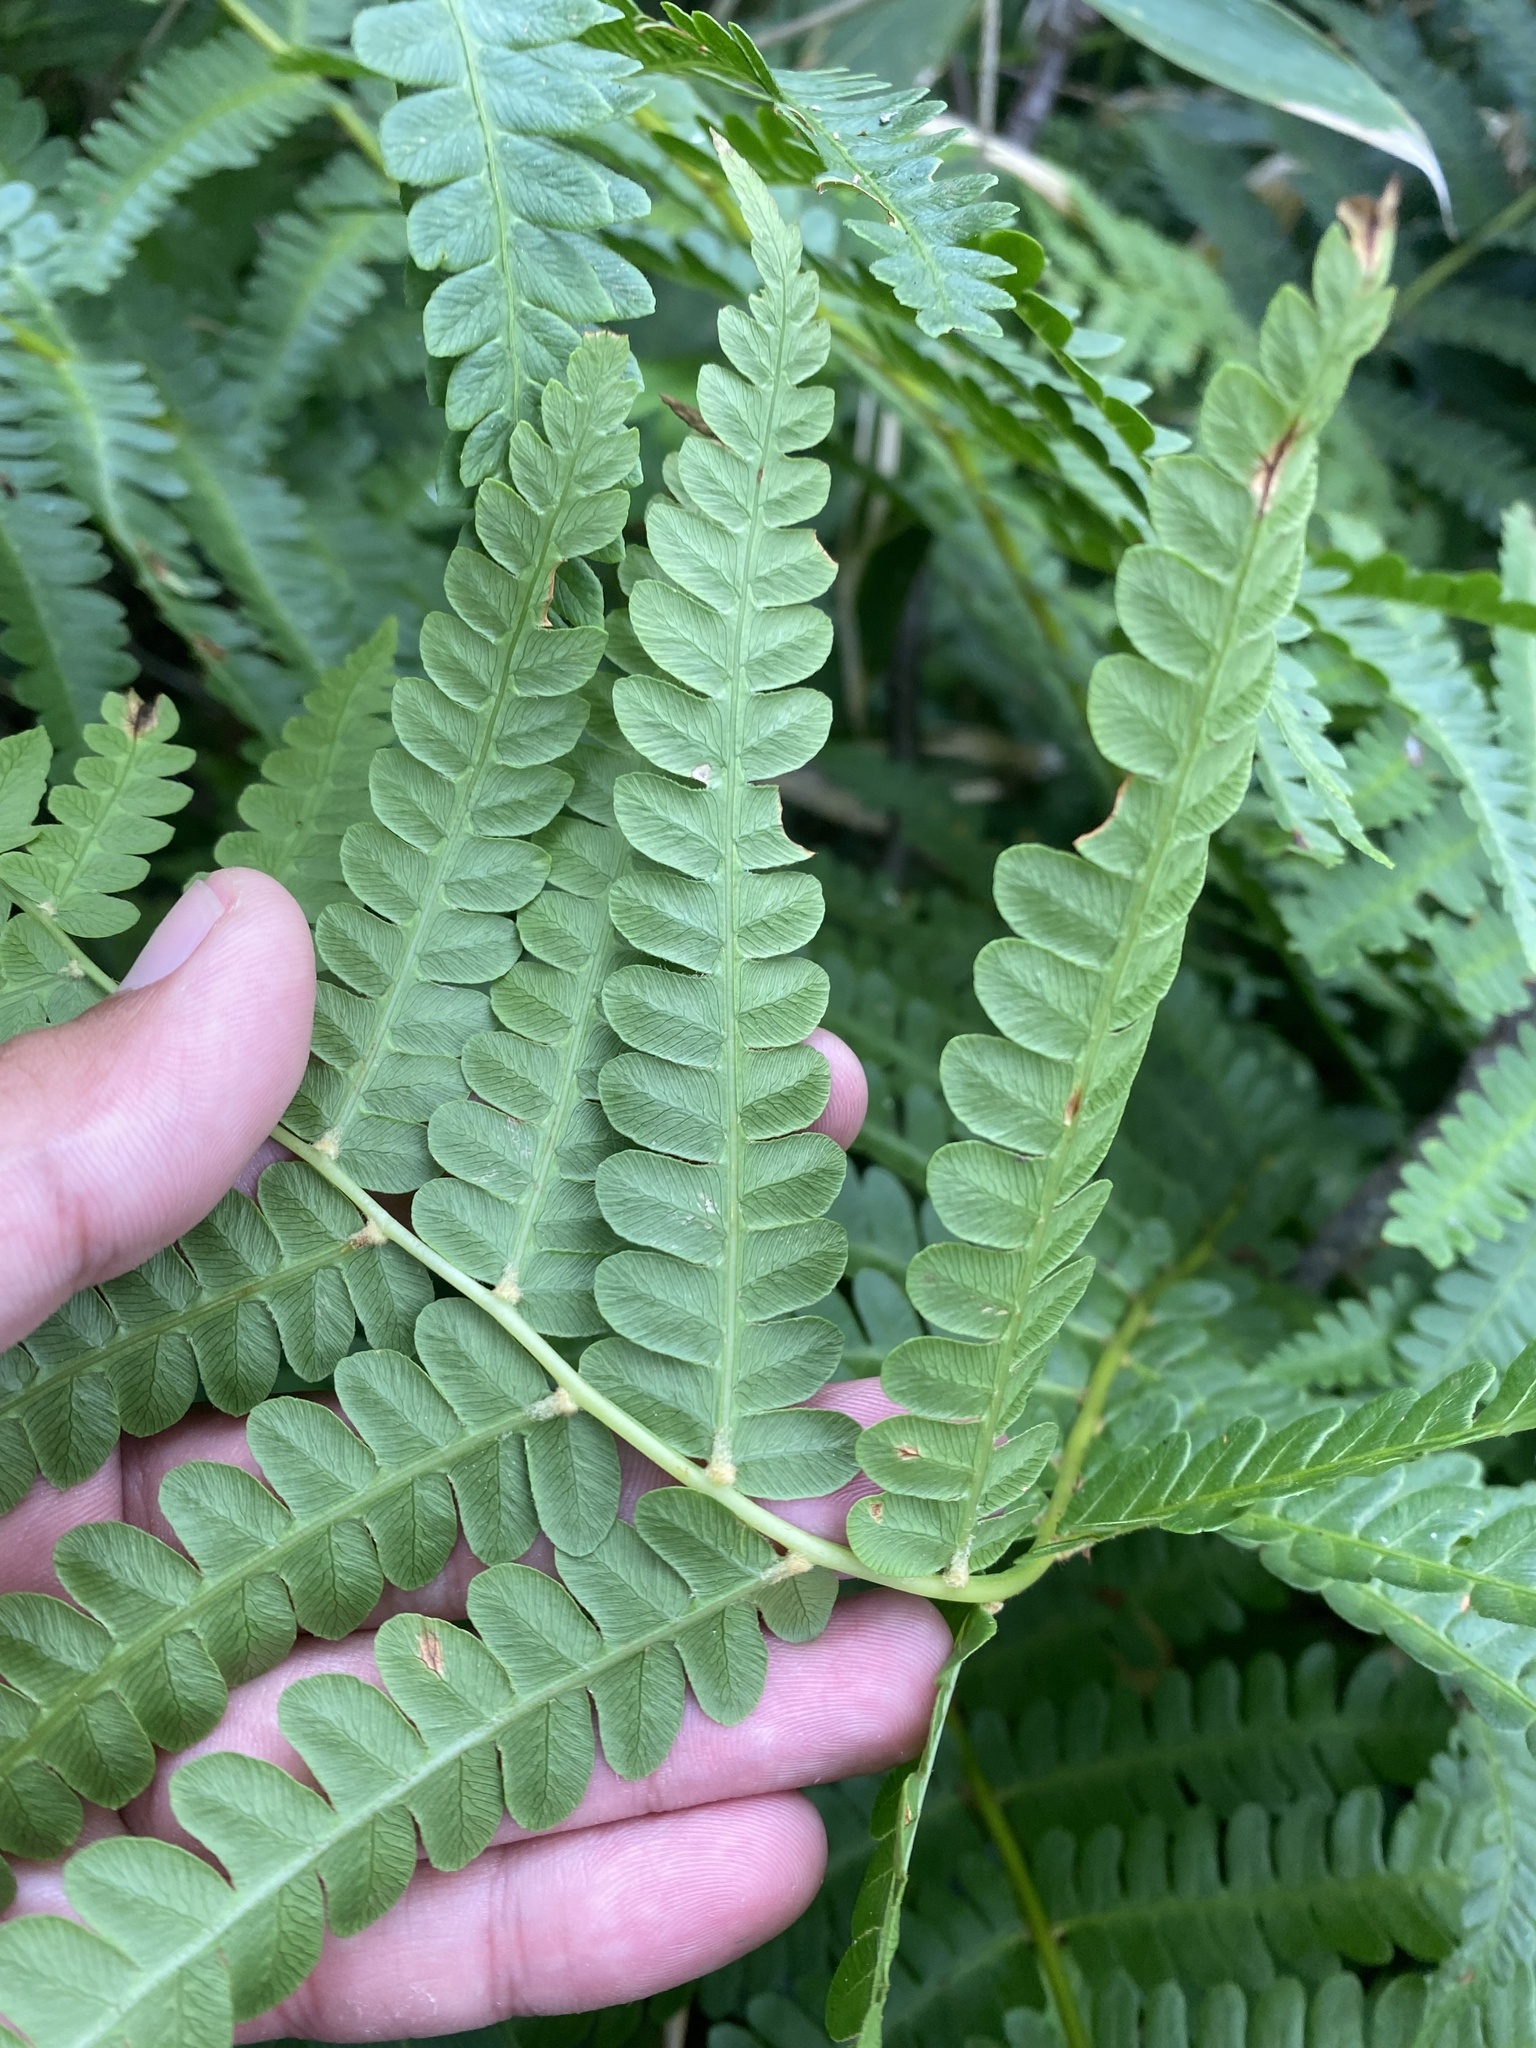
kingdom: Plantae
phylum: Tracheophyta
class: Polypodiopsida
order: Osmundales
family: Osmundaceae
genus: Osmundastrum
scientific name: Osmundastrum cinnamomeum
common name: Cinnamon fern
